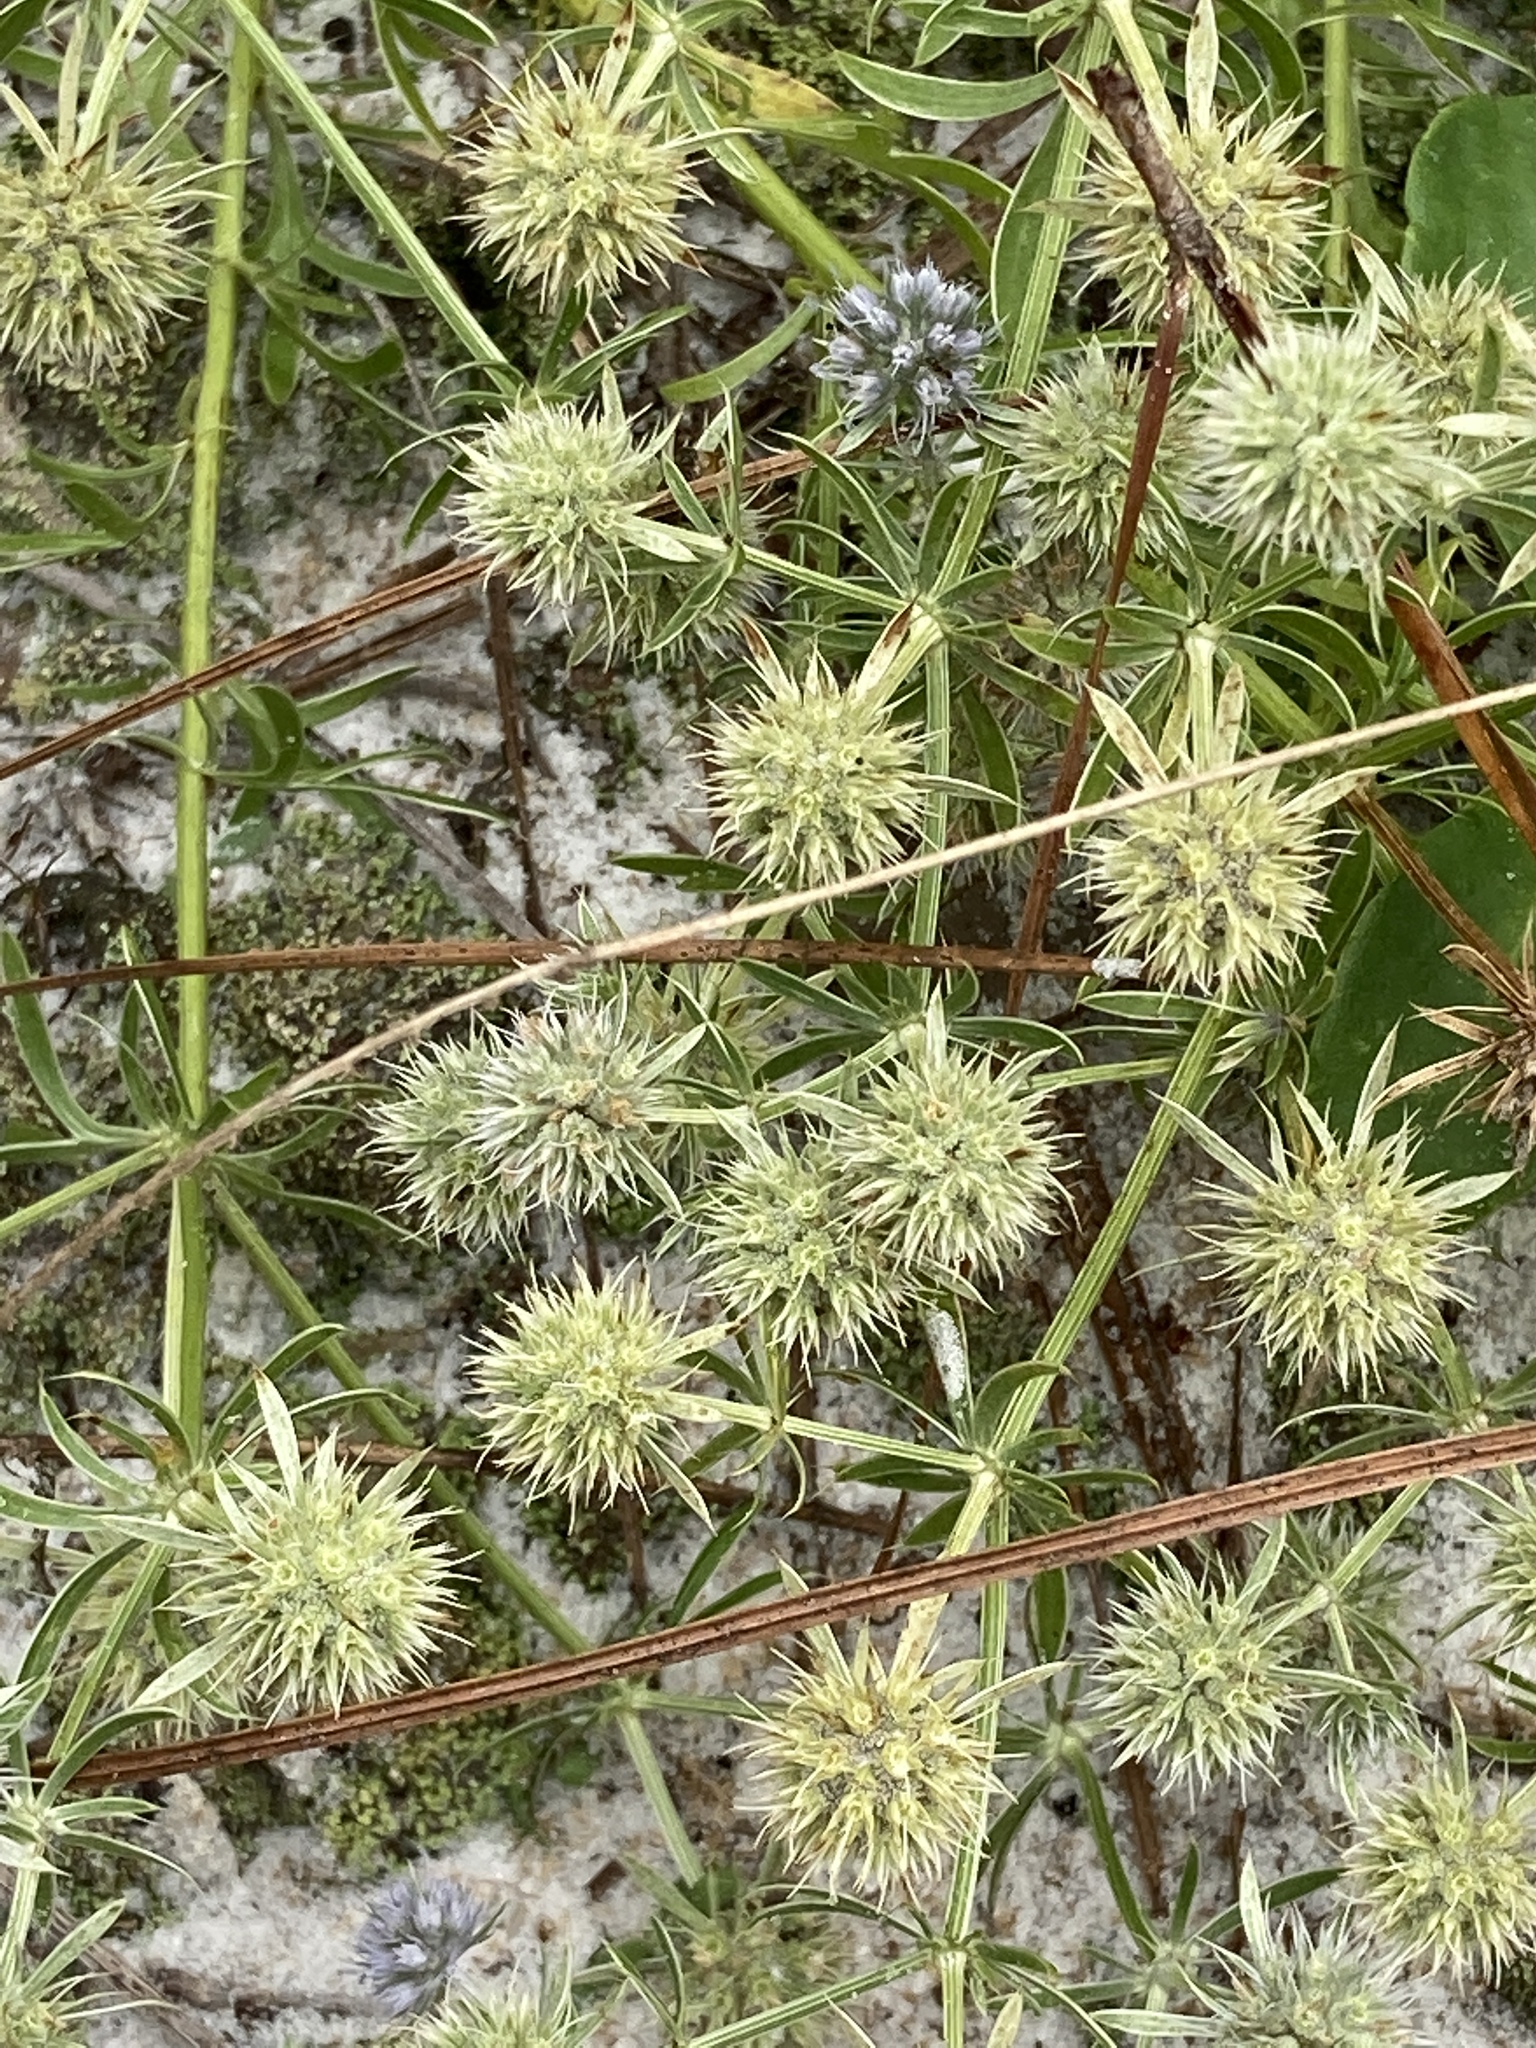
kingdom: Plantae
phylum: Tracheophyta
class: Magnoliopsida
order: Apiales
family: Apiaceae
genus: Eryngium
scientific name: Eryngium aromaticum
